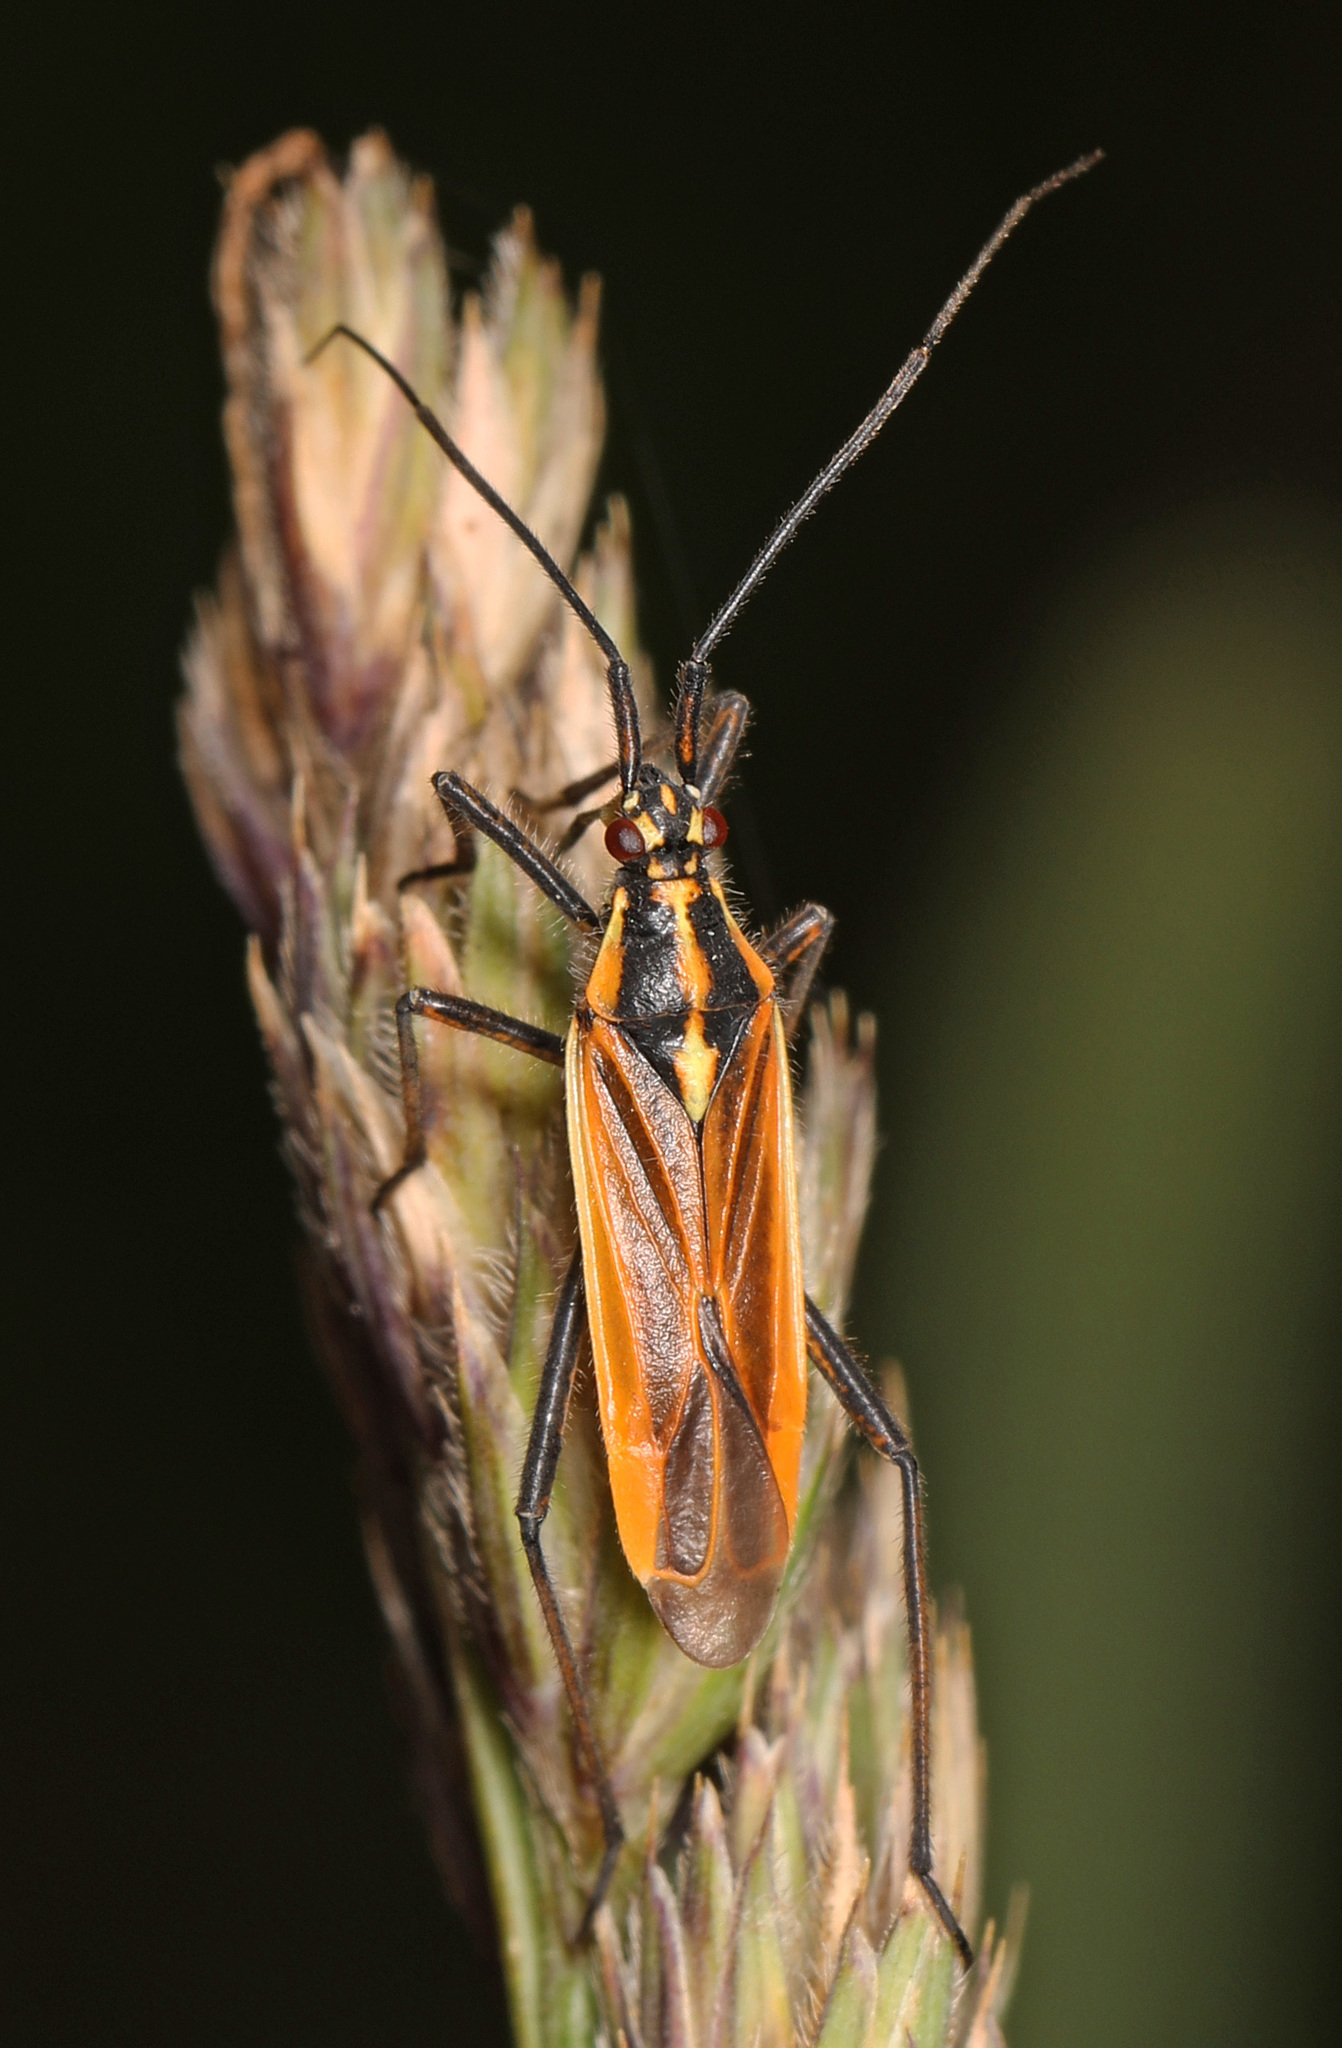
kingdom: Animalia
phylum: Arthropoda
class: Insecta
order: Hemiptera
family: Miridae
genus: Leptopterna
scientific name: Leptopterna dolabrata
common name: Meadow plant bug
